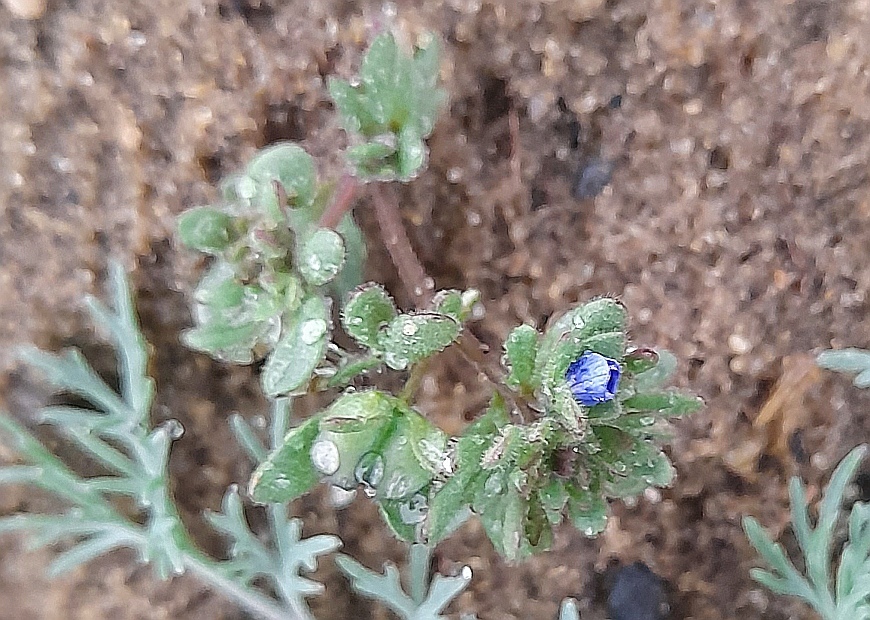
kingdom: Plantae
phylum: Tracheophyta
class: Magnoliopsida
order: Lamiales
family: Plantaginaceae
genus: Veronica
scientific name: Veronica triphyllos
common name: Fingered speedwell
